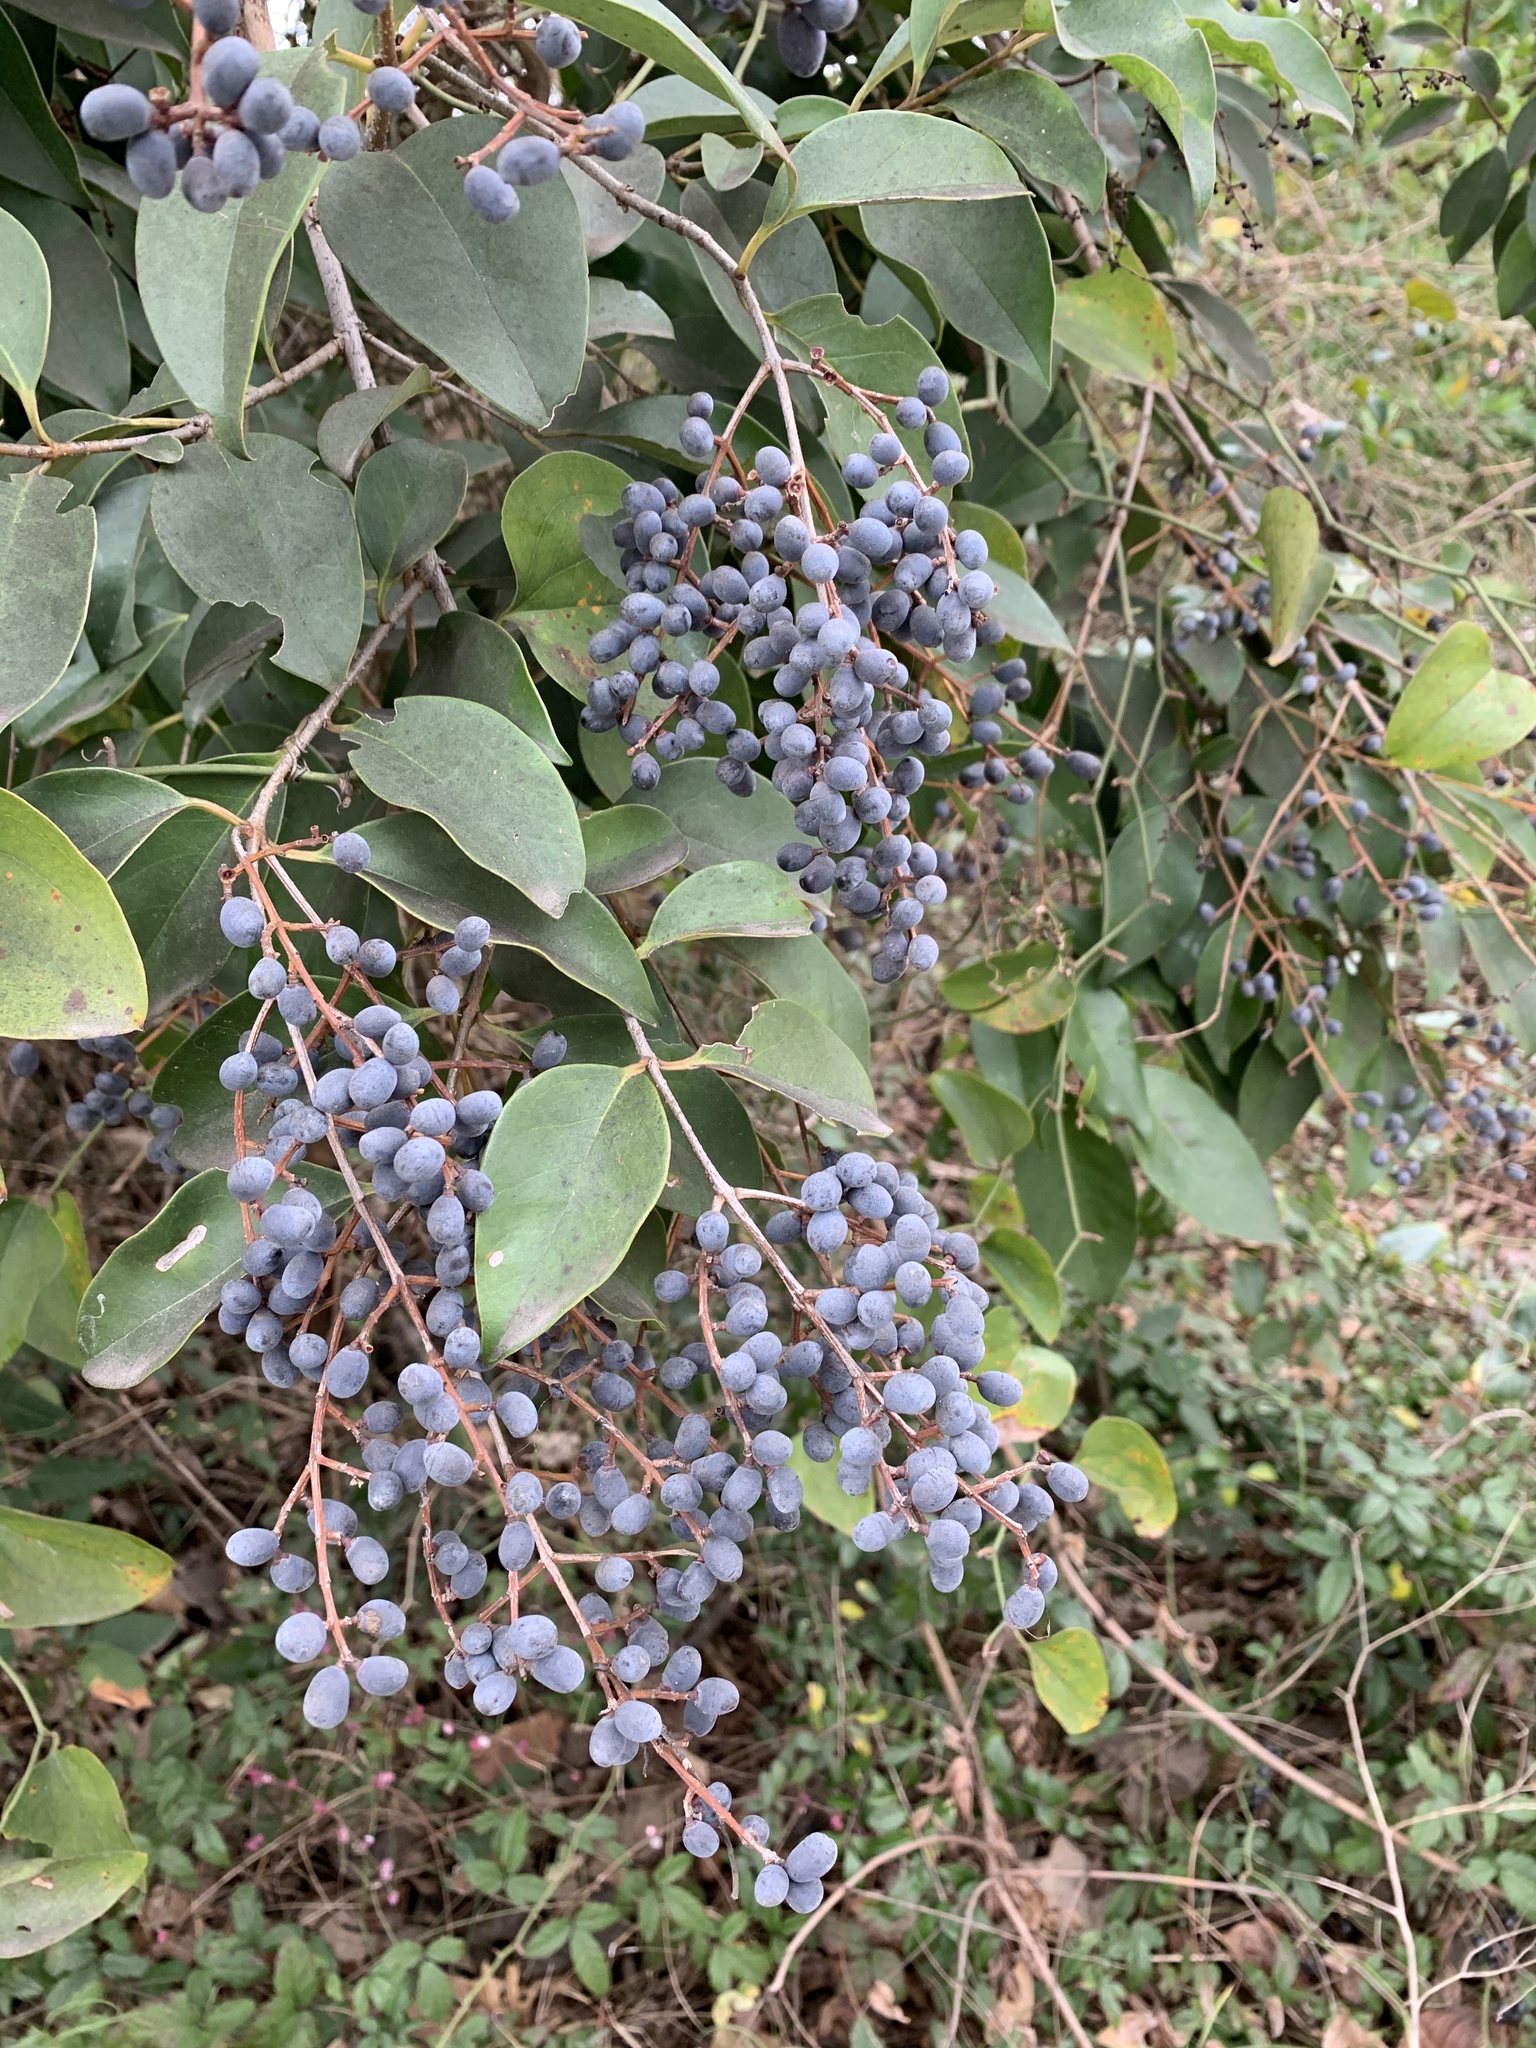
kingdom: Plantae
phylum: Tracheophyta
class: Magnoliopsida
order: Lamiales
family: Oleaceae
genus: Ligustrum
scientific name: Ligustrum lucidum
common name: Glossy privet
